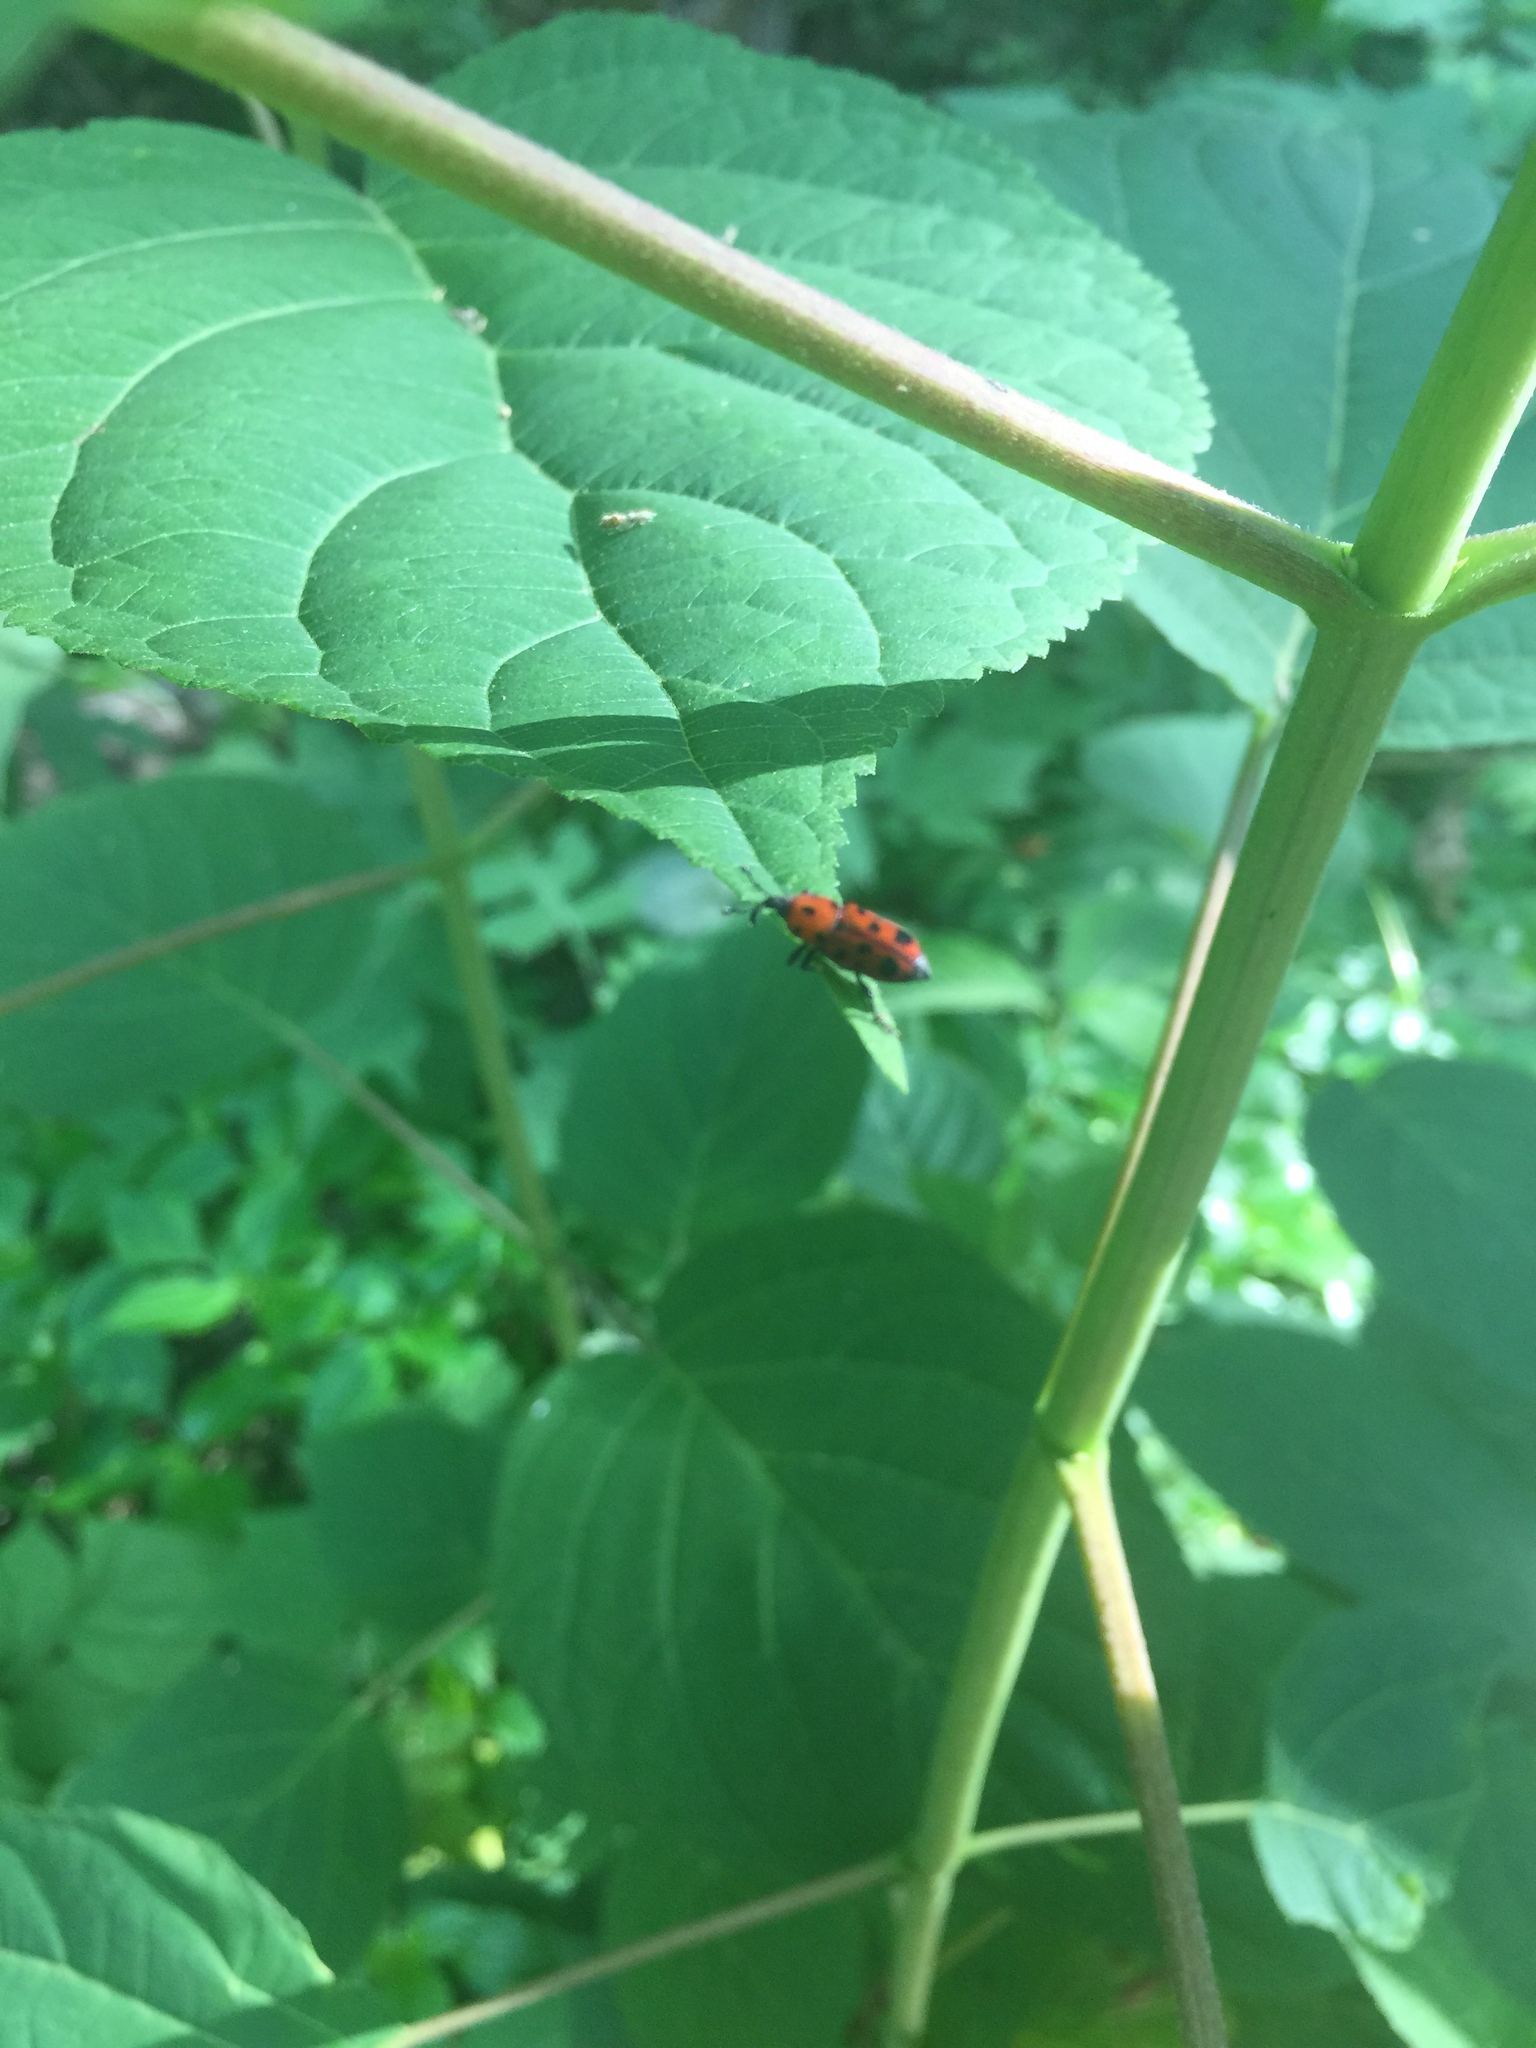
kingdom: Animalia
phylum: Arthropoda
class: Insecta
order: Coleoptera
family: Dryophthoridae
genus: Rhodobaenus
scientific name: Rhodobaenus tredecimpunctatus
